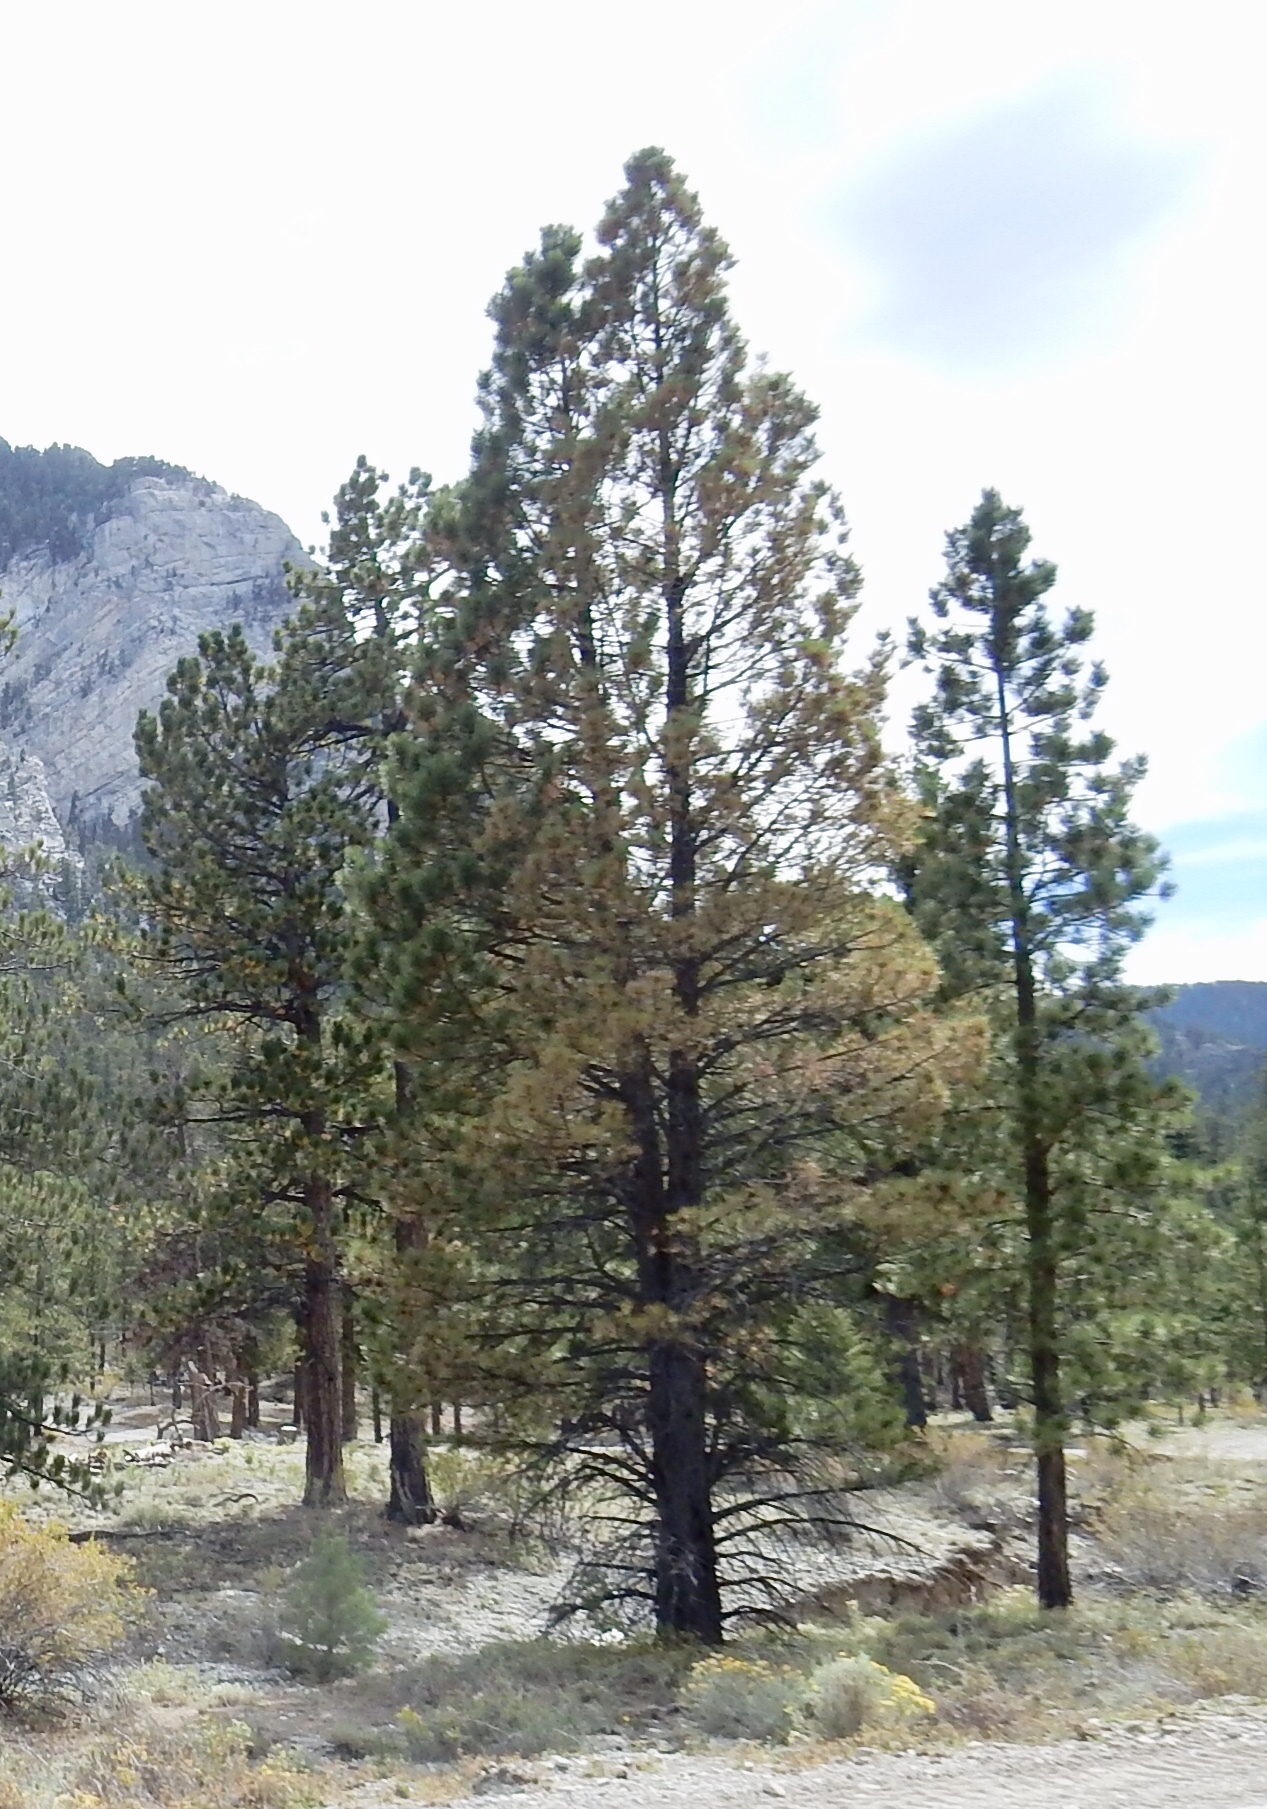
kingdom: Plantae
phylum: Tracheophyta
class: Pinopsida
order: Pinales
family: Pinaceae
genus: Pinus
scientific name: Pinus ponderosa
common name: Western yellow-pine
